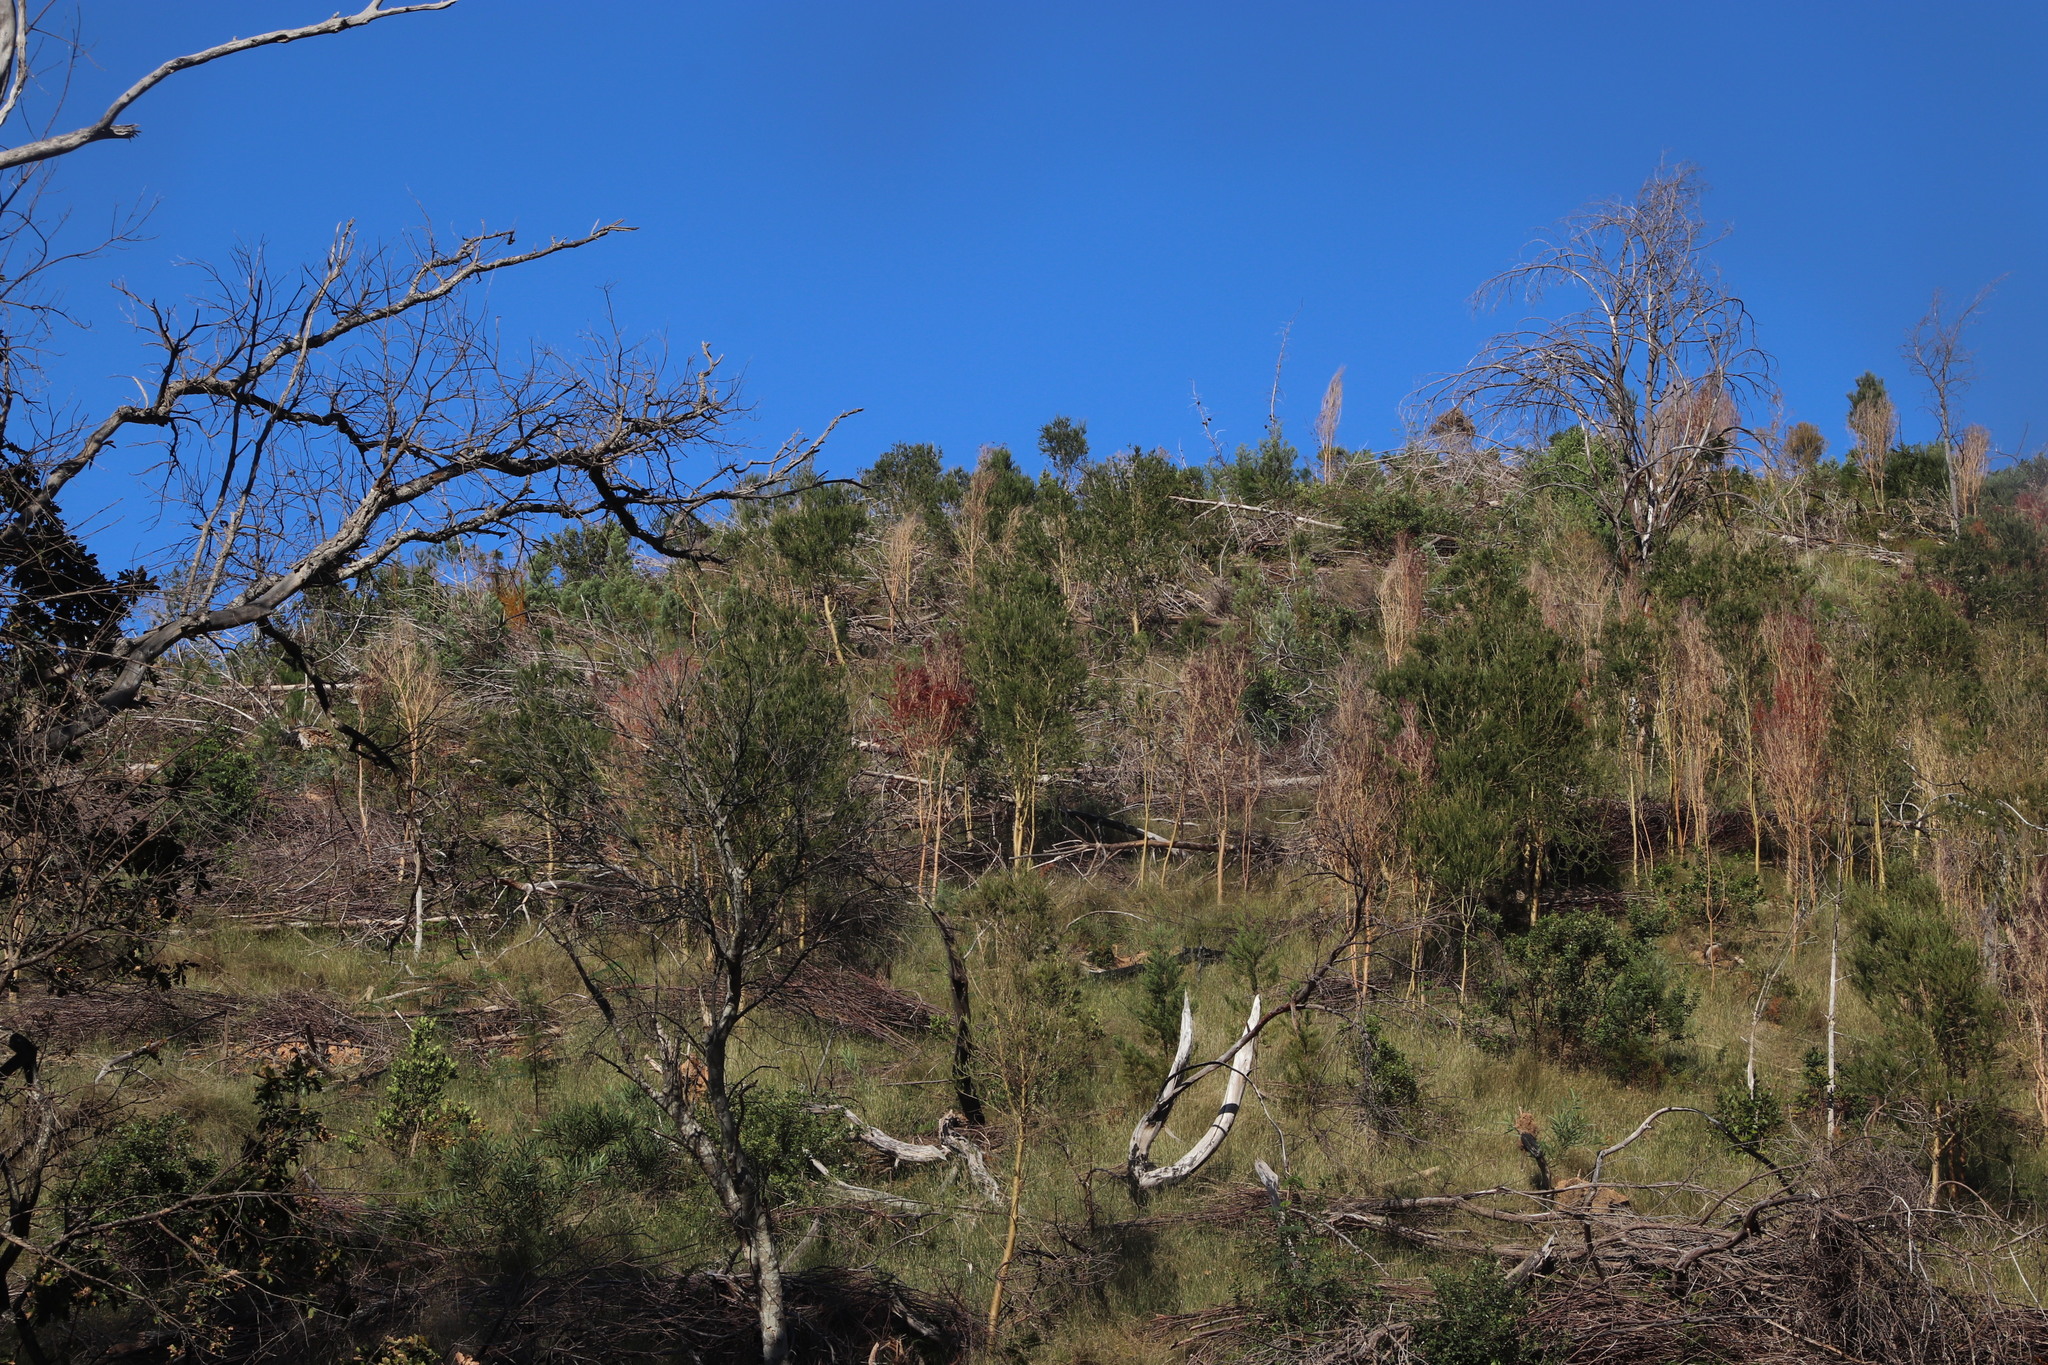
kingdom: Plantae
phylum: Tracheophyta
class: Magnoliopsida
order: Fabales
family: Fabaceae
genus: Aspalathus
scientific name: Aspalathus macrantha
